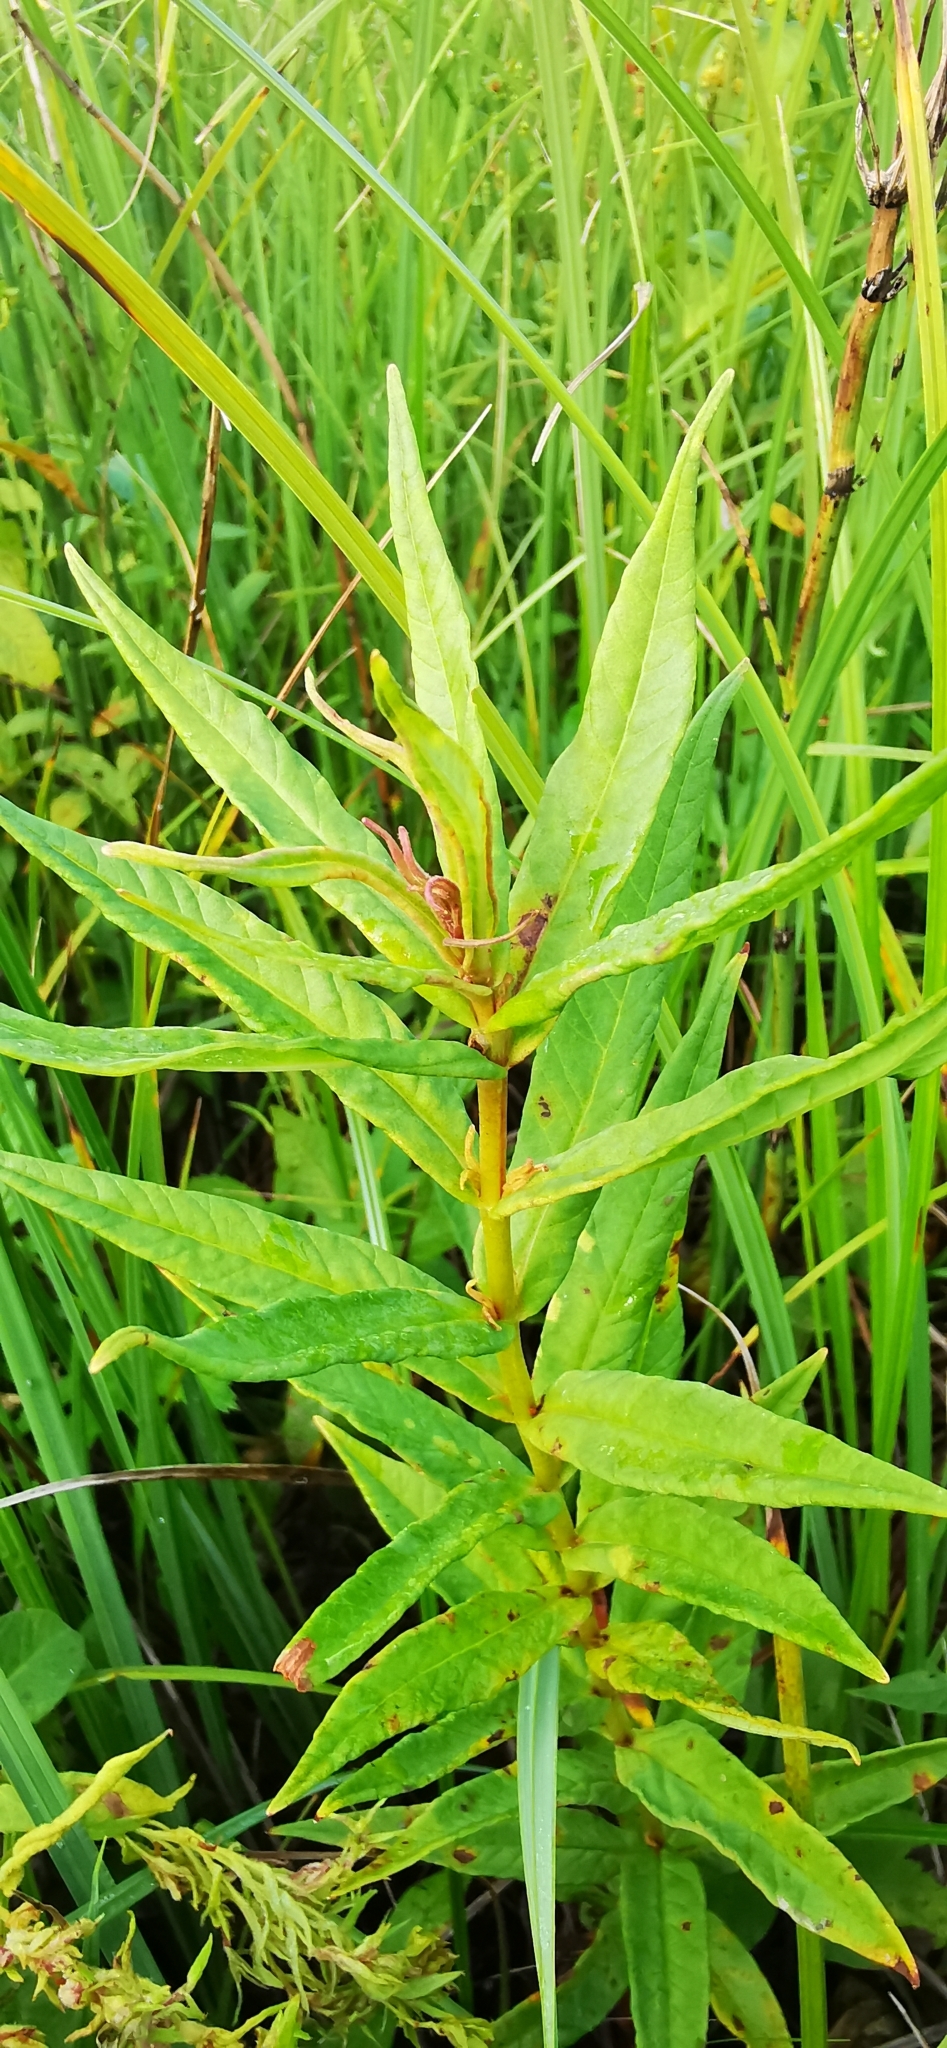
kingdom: Plantae
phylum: Tracheophyta
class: Magnoliopsida
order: Ericales
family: Primulaceae
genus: Lysimachia
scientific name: Lysimachia thyrsiflora
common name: Tufted loosestrife
